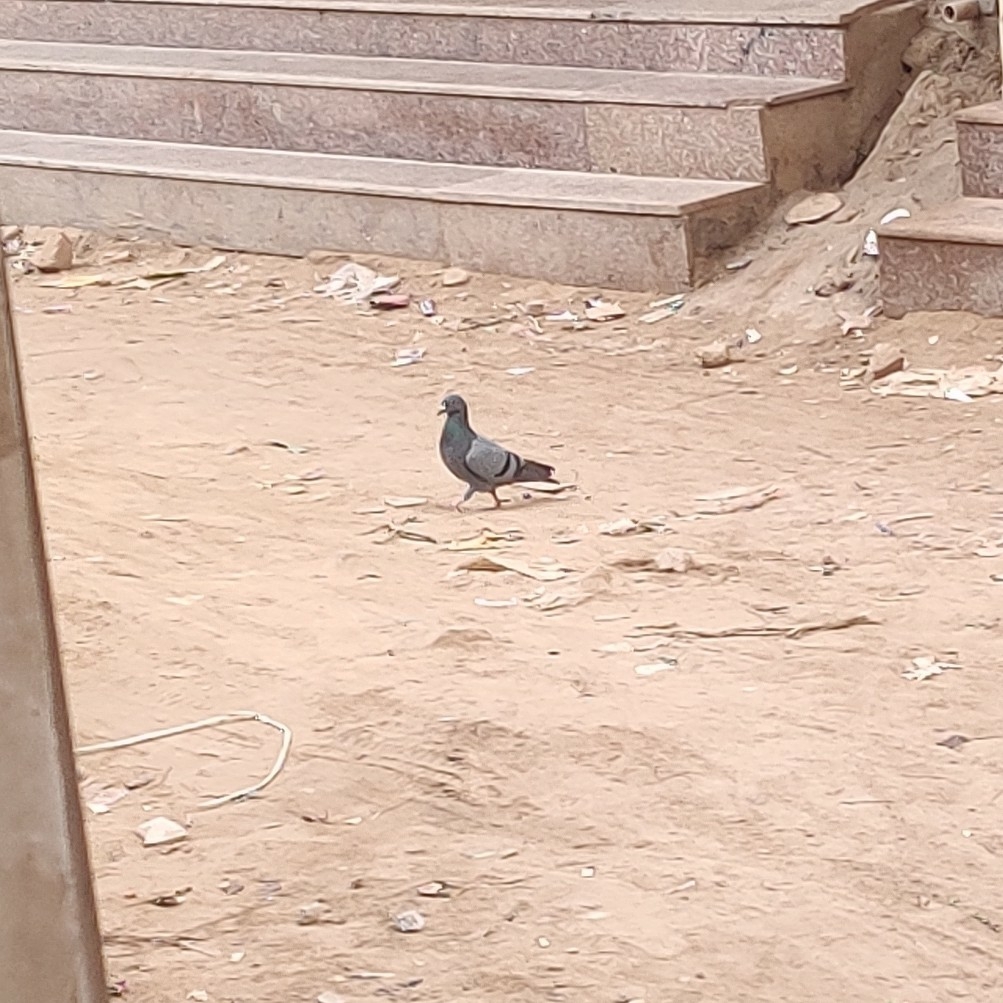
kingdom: Animalia
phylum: Chordata
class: Aves
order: Columbiformes
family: Columbidae
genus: Columba
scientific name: Columba livia
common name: Rock pigeon
